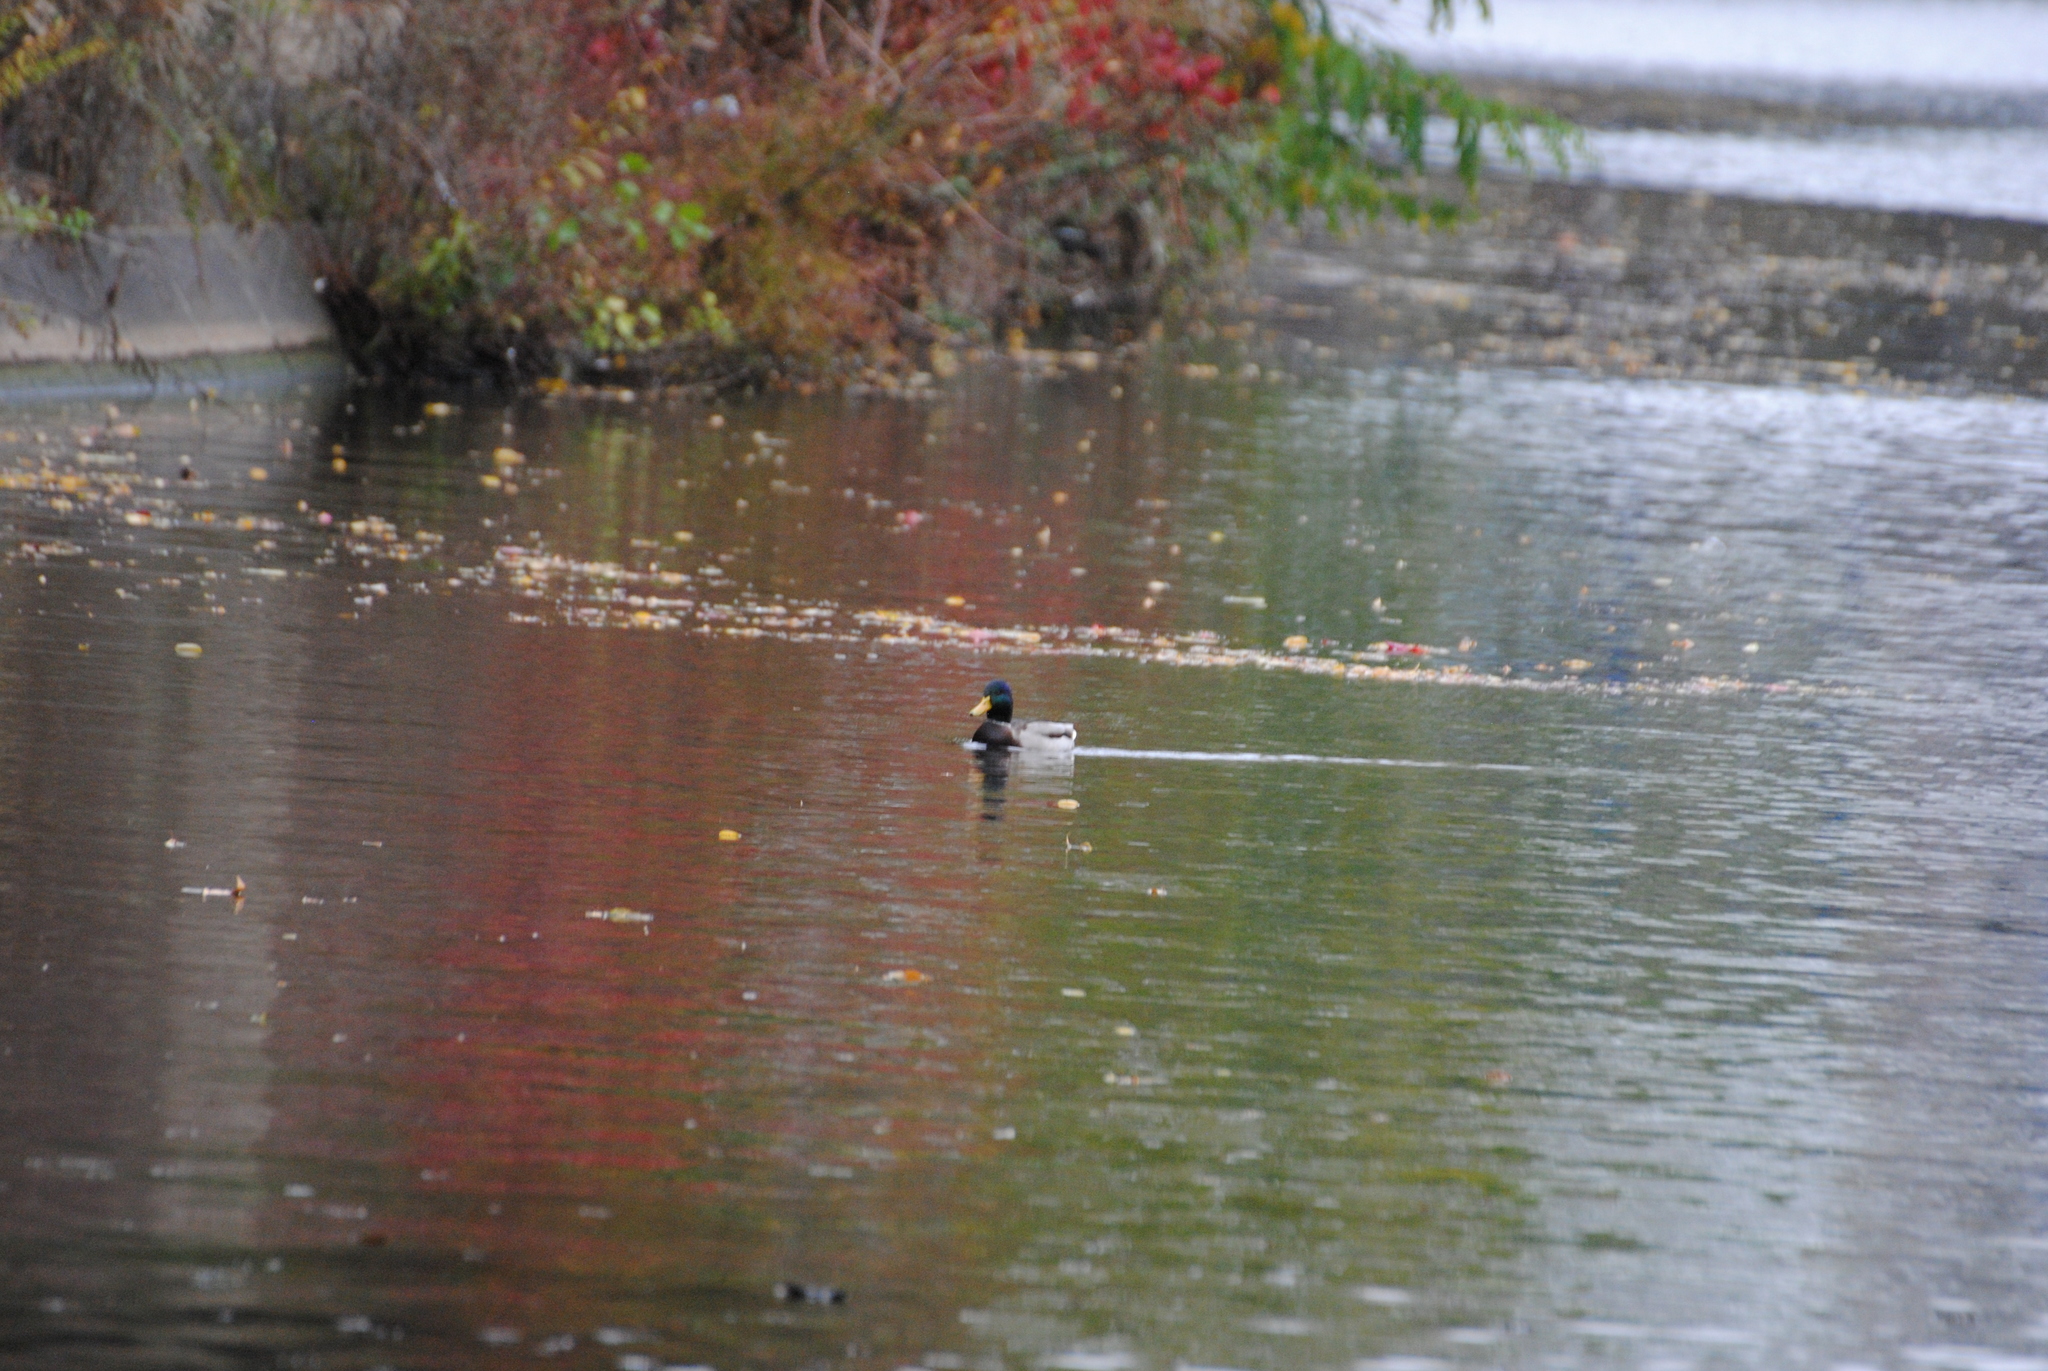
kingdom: Animalia
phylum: Chordata
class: Aves
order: Anseriformes
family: Anatidae
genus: Anas
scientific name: Anas platyrhynchos
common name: Mallard
